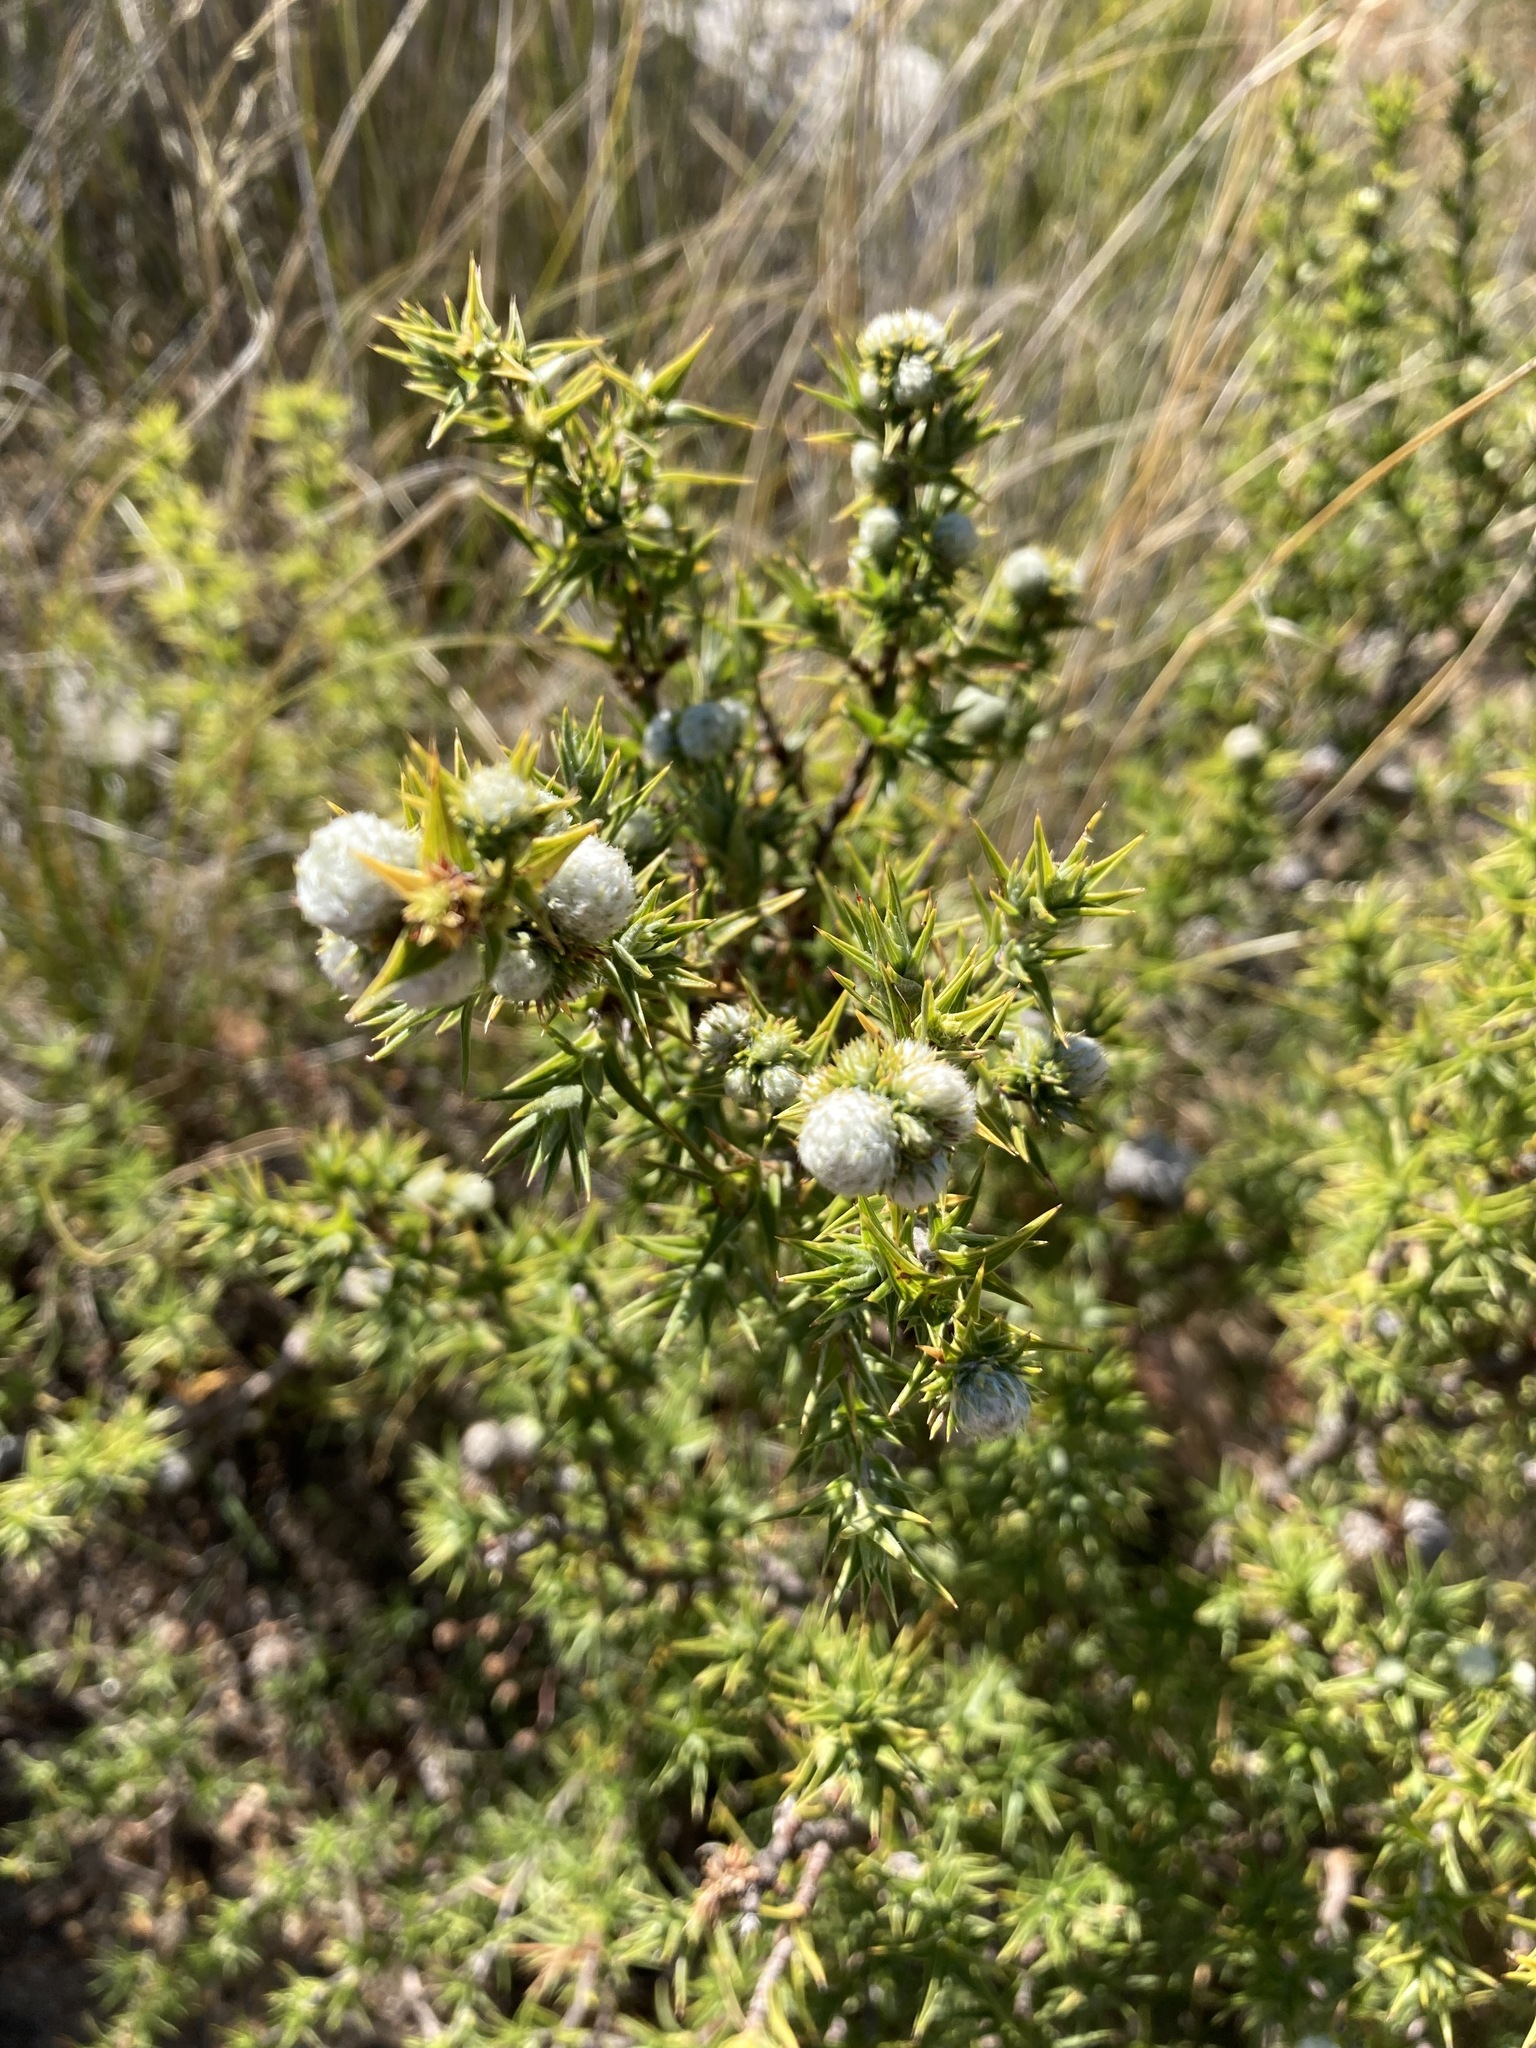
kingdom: Plantae
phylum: Tracheophyta
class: Magnoliopsida
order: Rosales
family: Rosaceae
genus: Cliffortia
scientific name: Cliffortia ruscifolia
